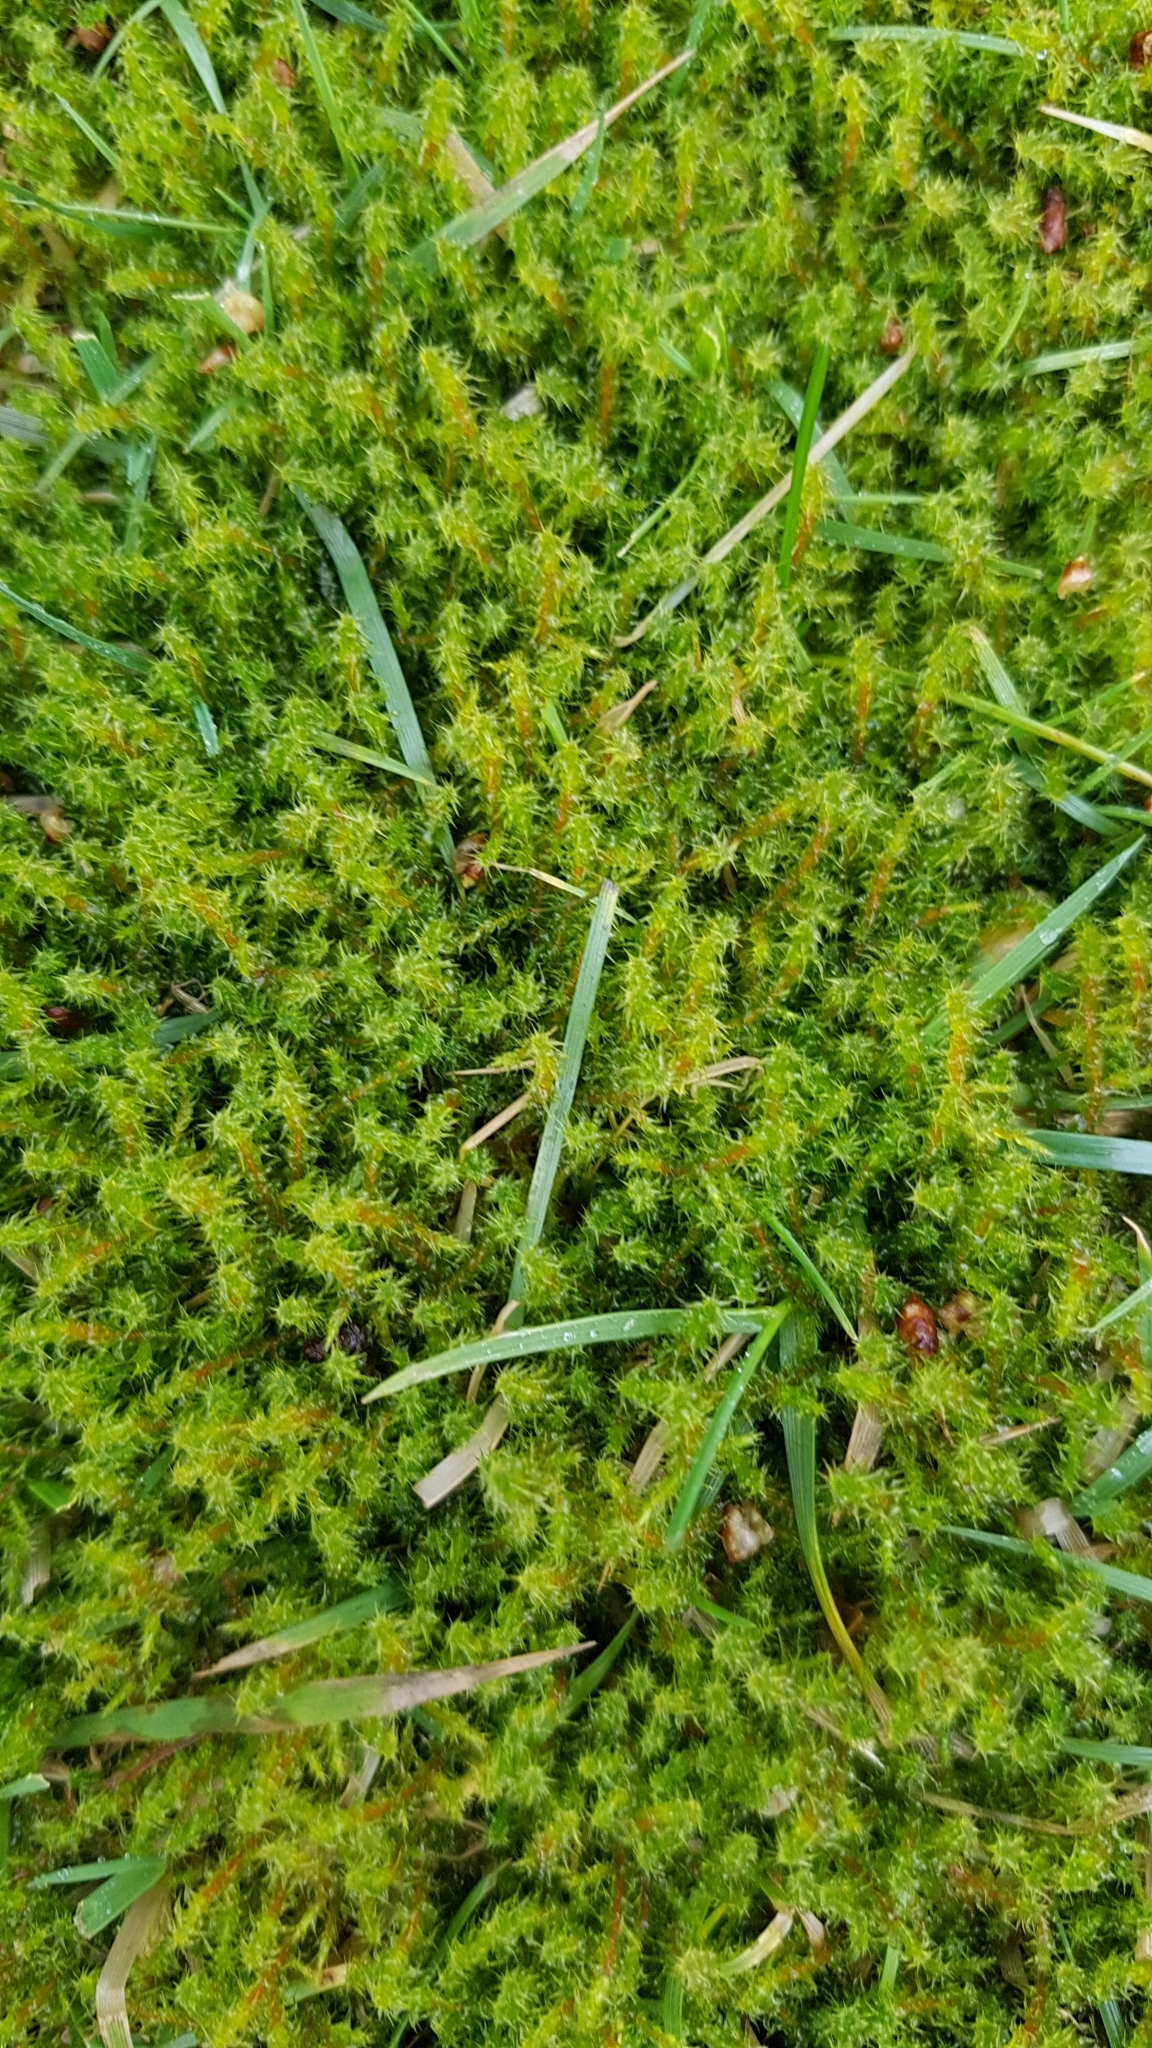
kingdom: Plantae
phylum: Bryophyta
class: Bryopsida
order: Hypnales
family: Hylocomiaceae
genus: Rhytidiadelphus
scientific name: Rhytidiadelphus squarrosus
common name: Springy turf-moss
